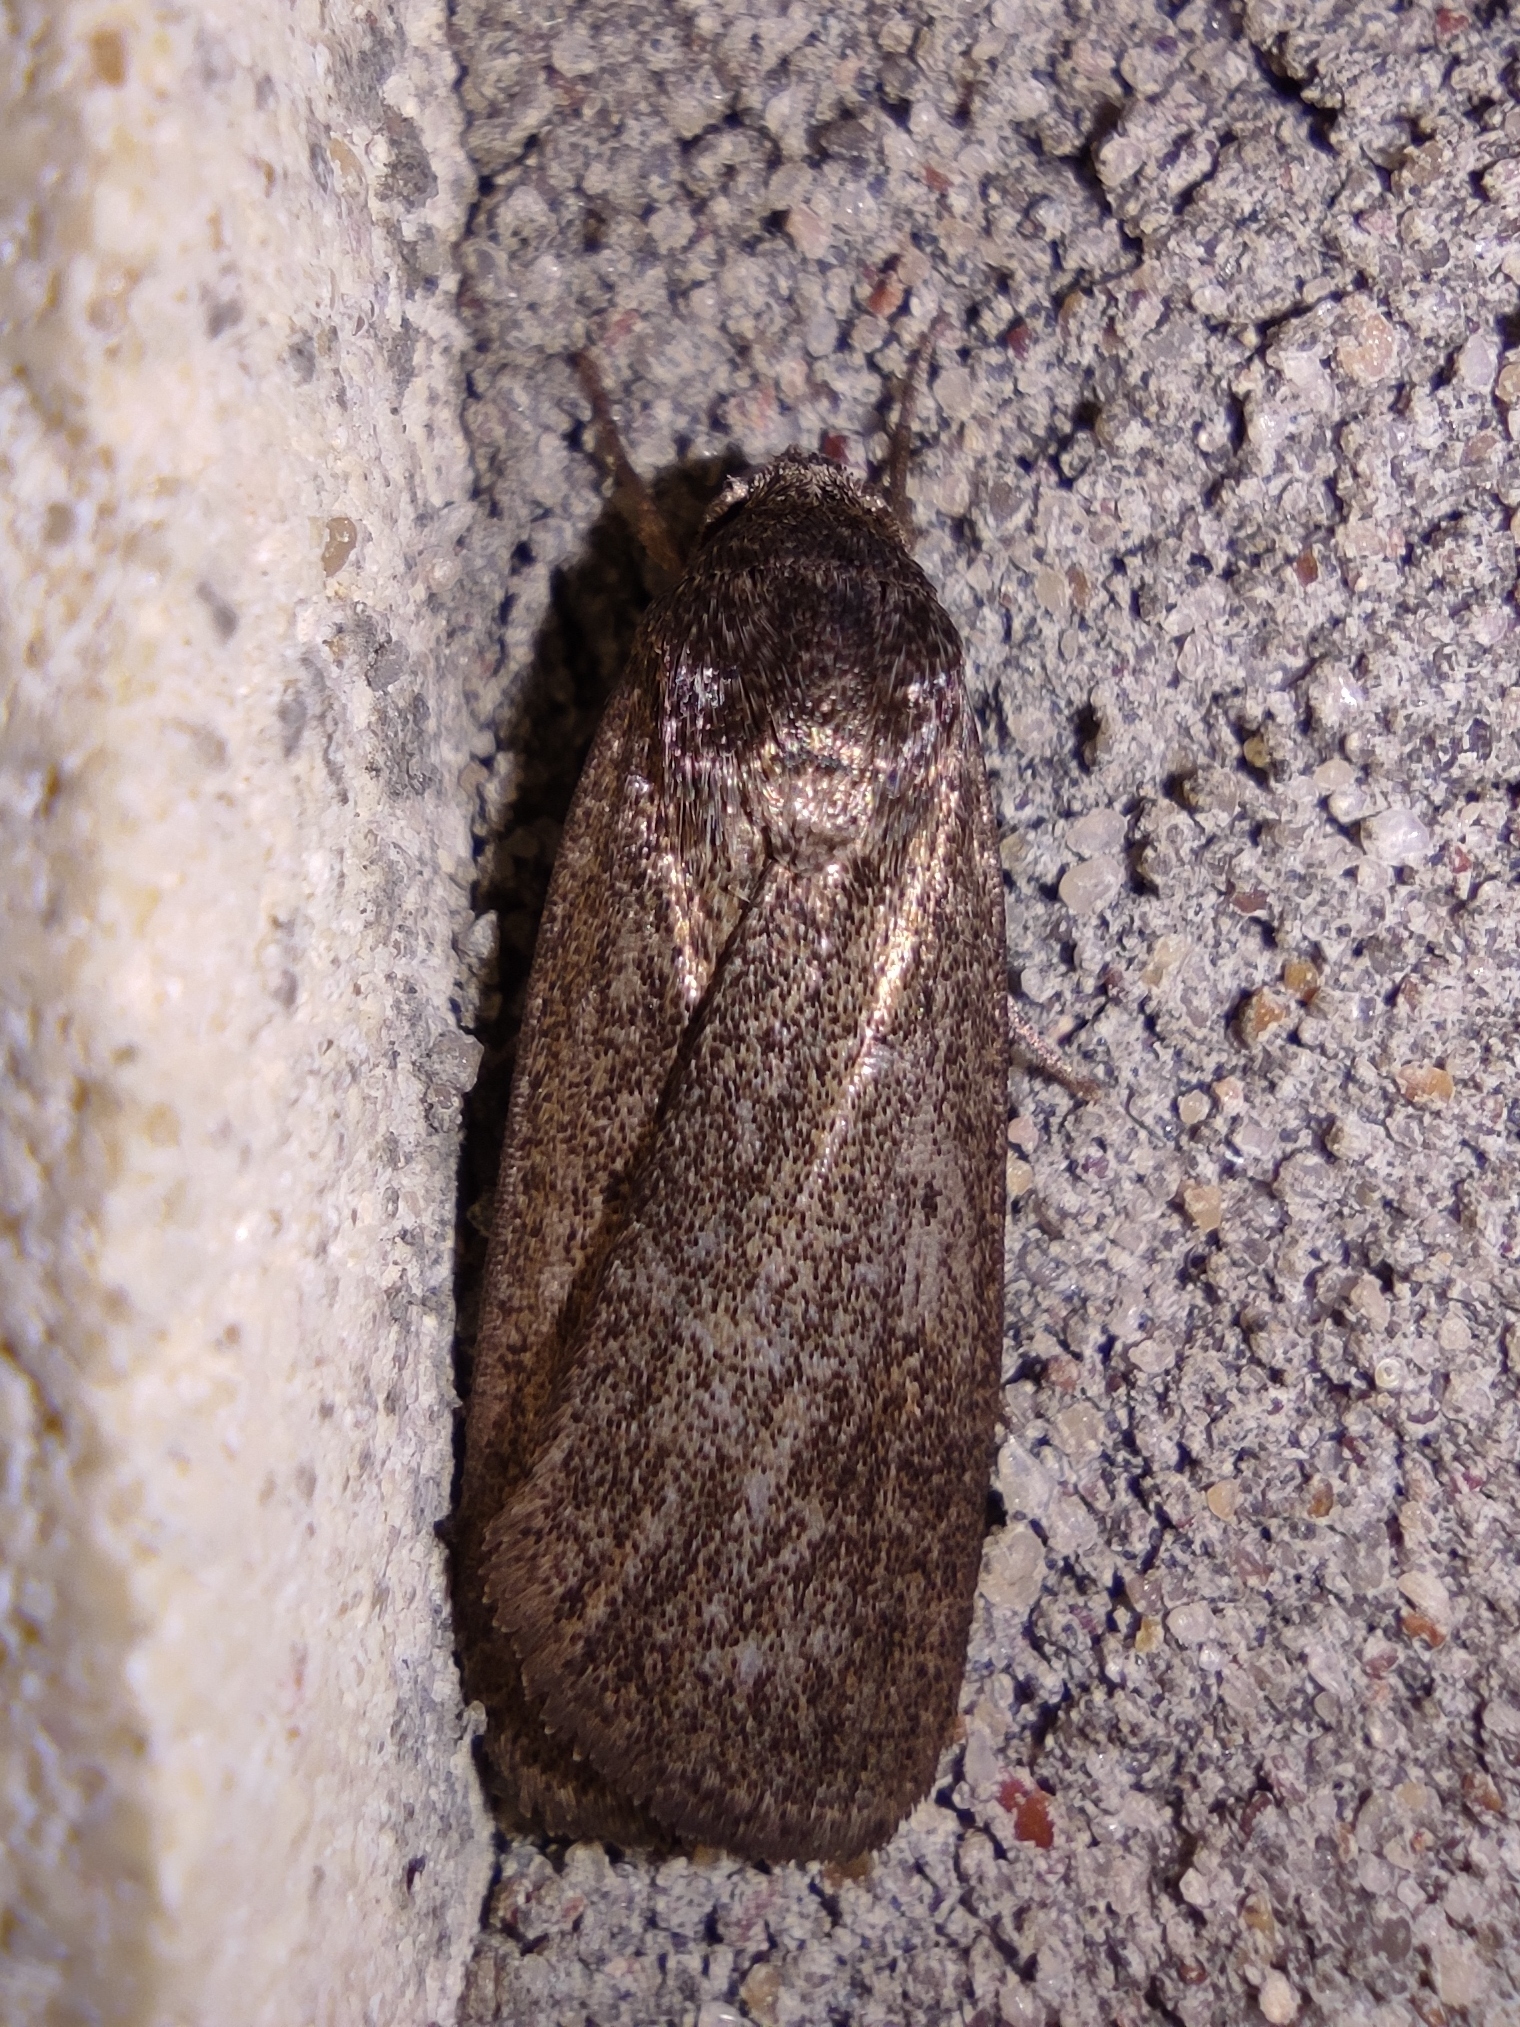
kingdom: Animalia
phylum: Arthropoda
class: Insecta
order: Lepidoptera
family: Noctuidae
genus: Athetis
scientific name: Athetis lepigone
